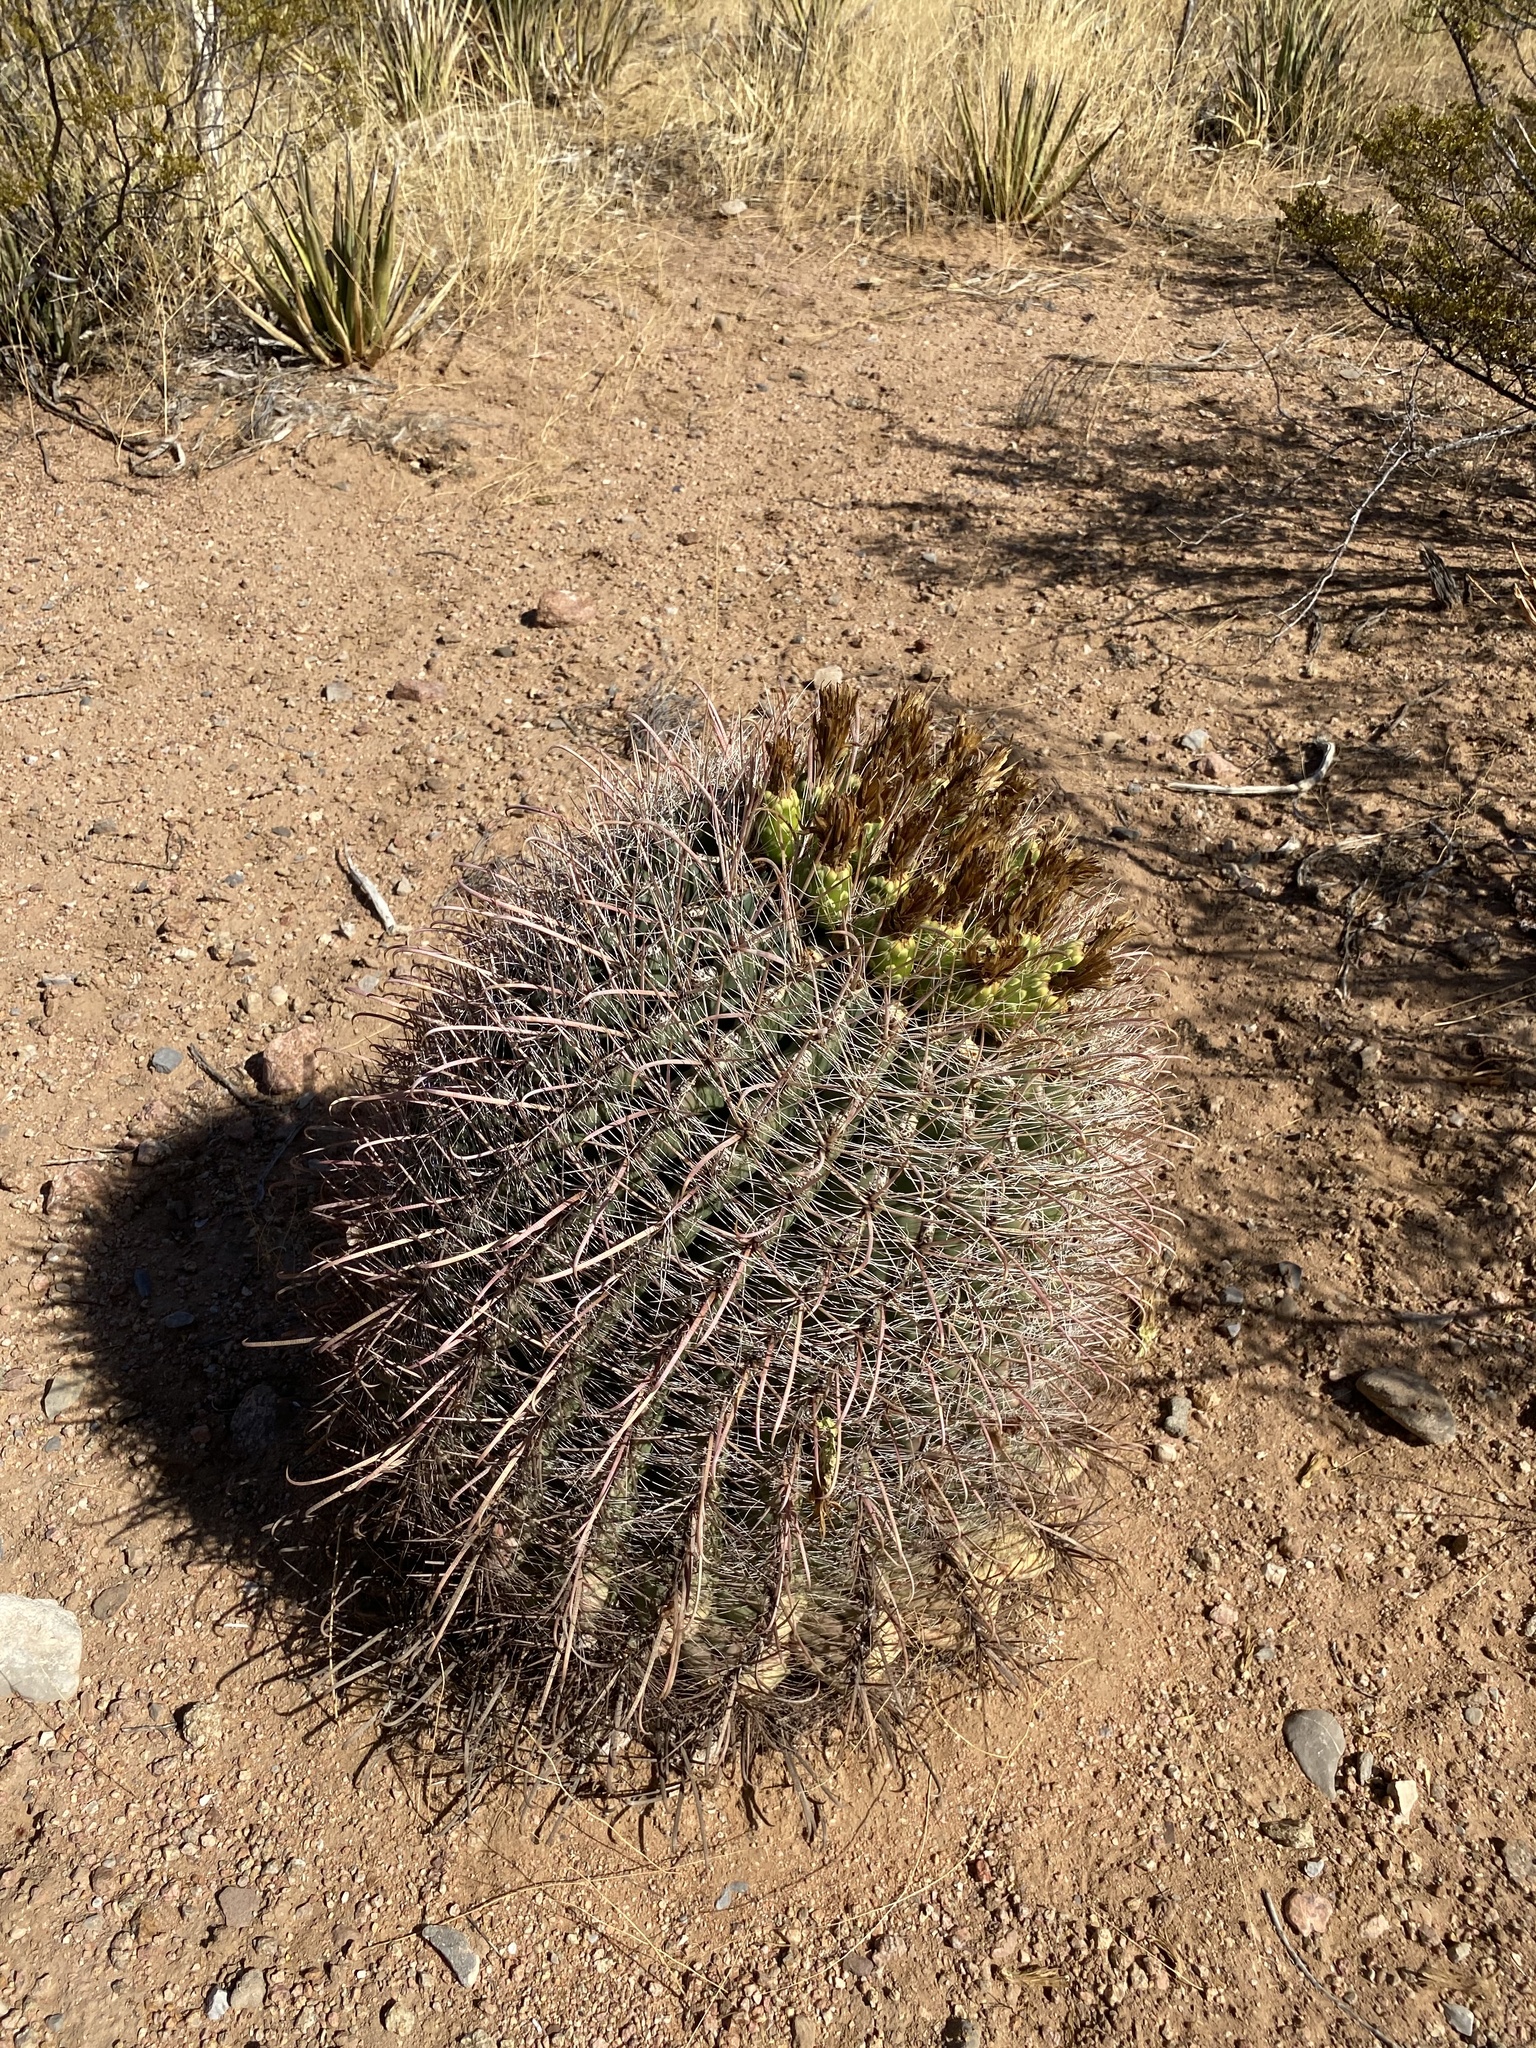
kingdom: Plantae
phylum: Tracheophyta
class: Magnoliopsida
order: Caryophyllales
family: Cactaceae
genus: Ferocactus
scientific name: Ferocactus wislizeni
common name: Candy barrel cactus
